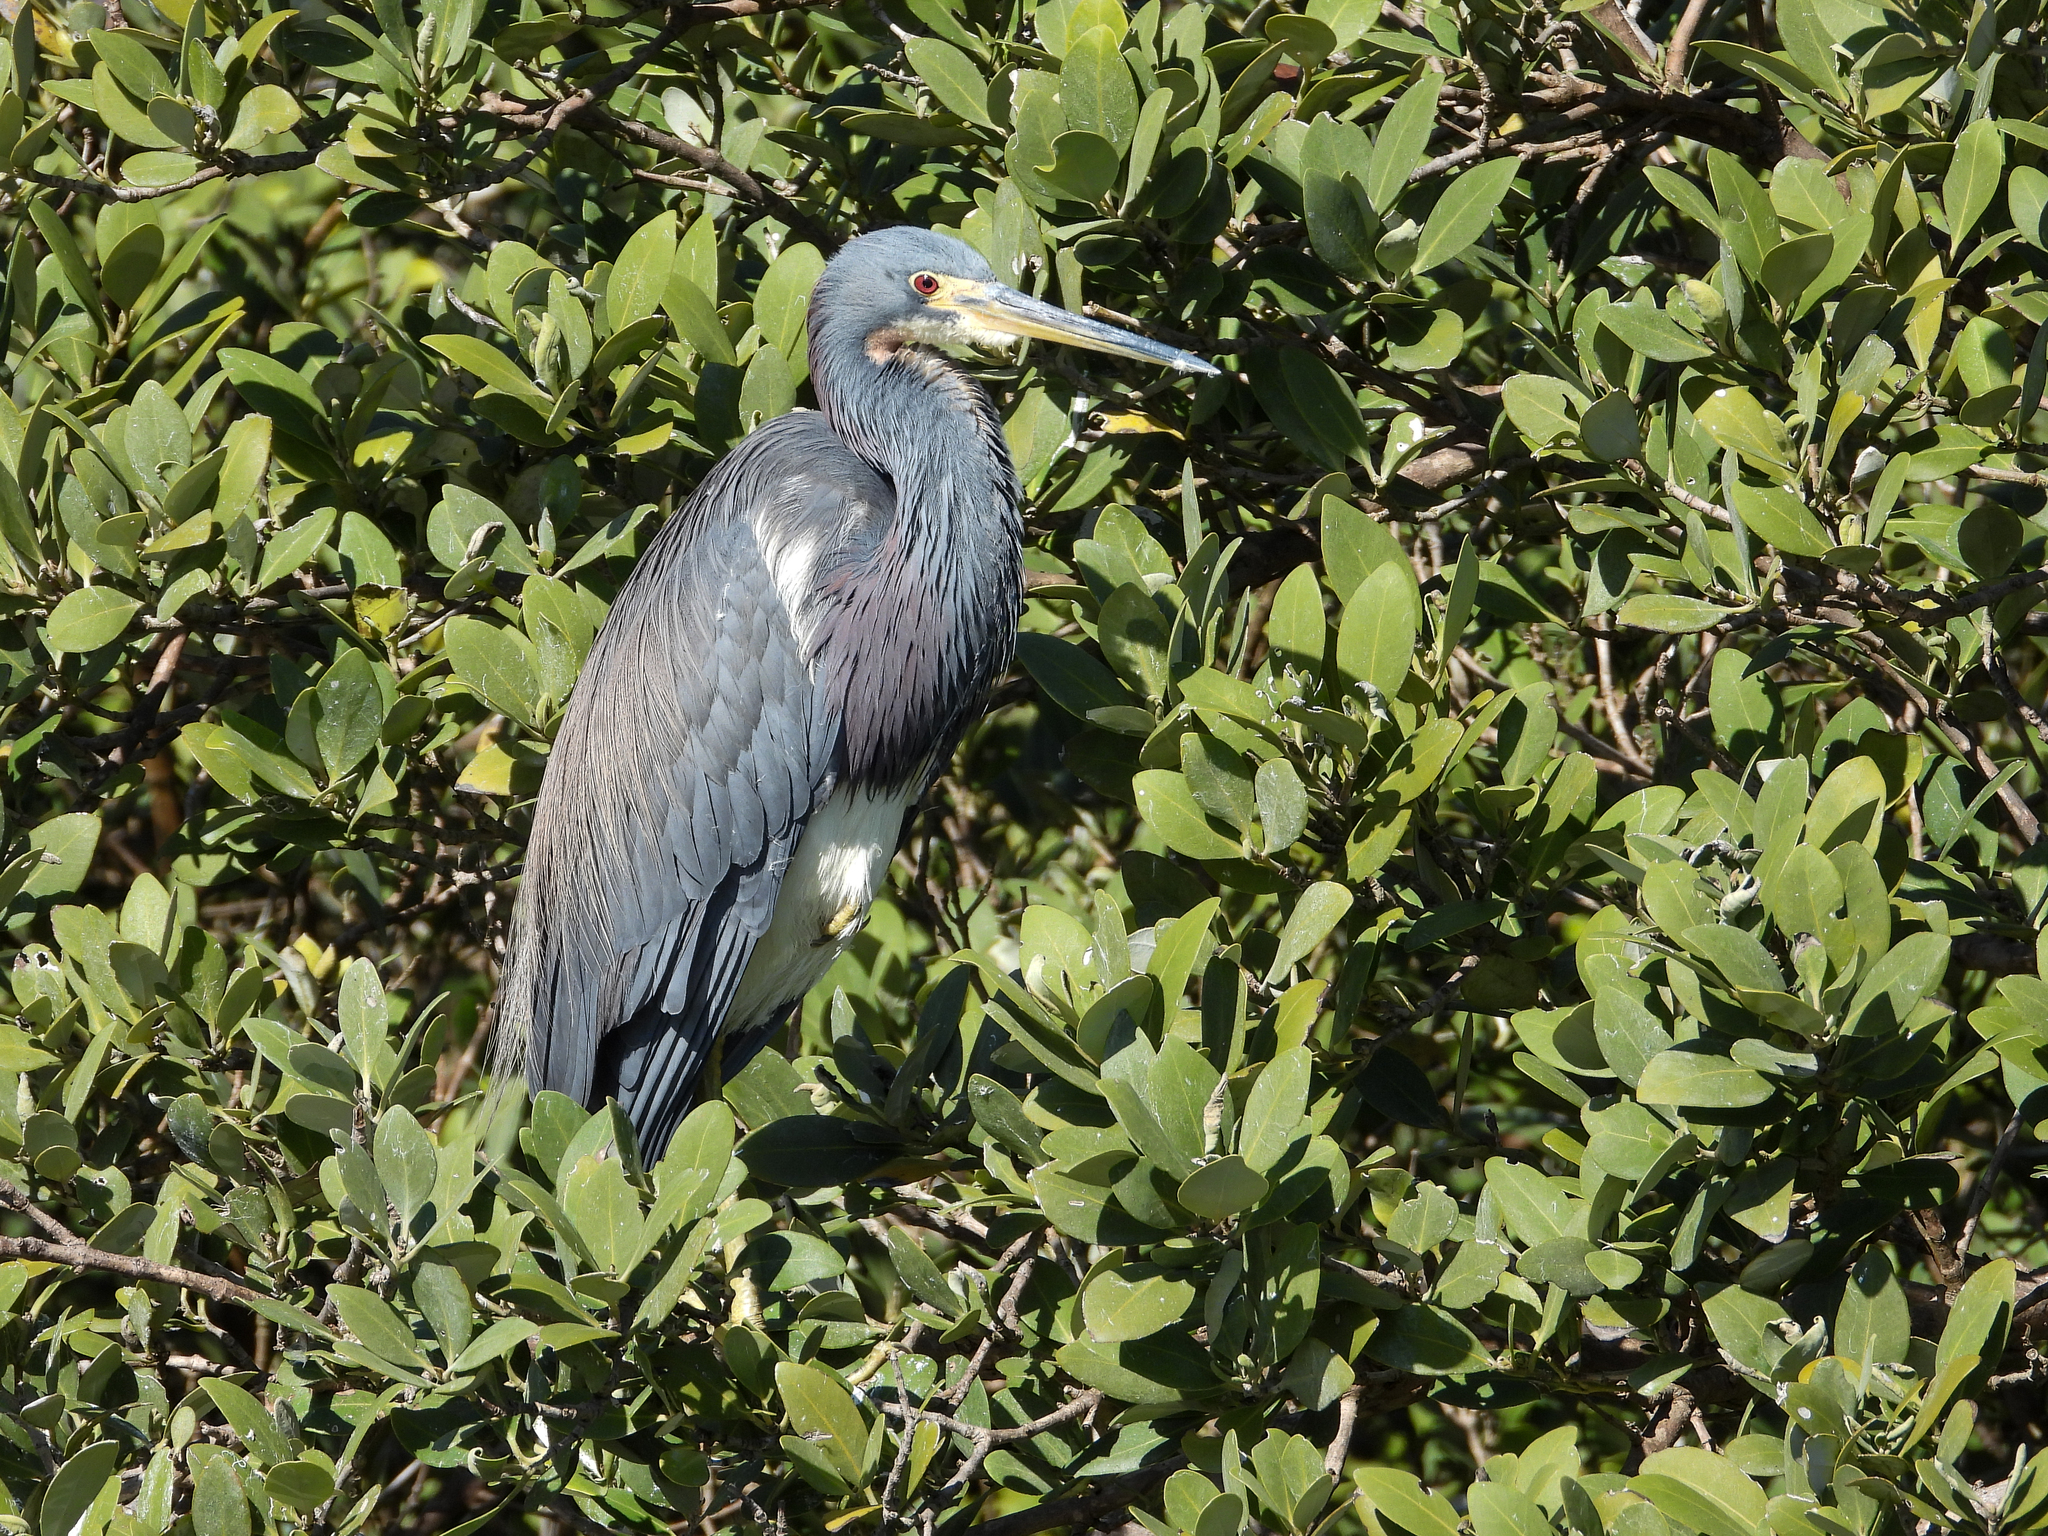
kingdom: Animalia
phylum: Chordata
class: Aves
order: Pelecaniformes
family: Ardeidae
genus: Egretta
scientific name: Egretta tricolor
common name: Tricolored heron
